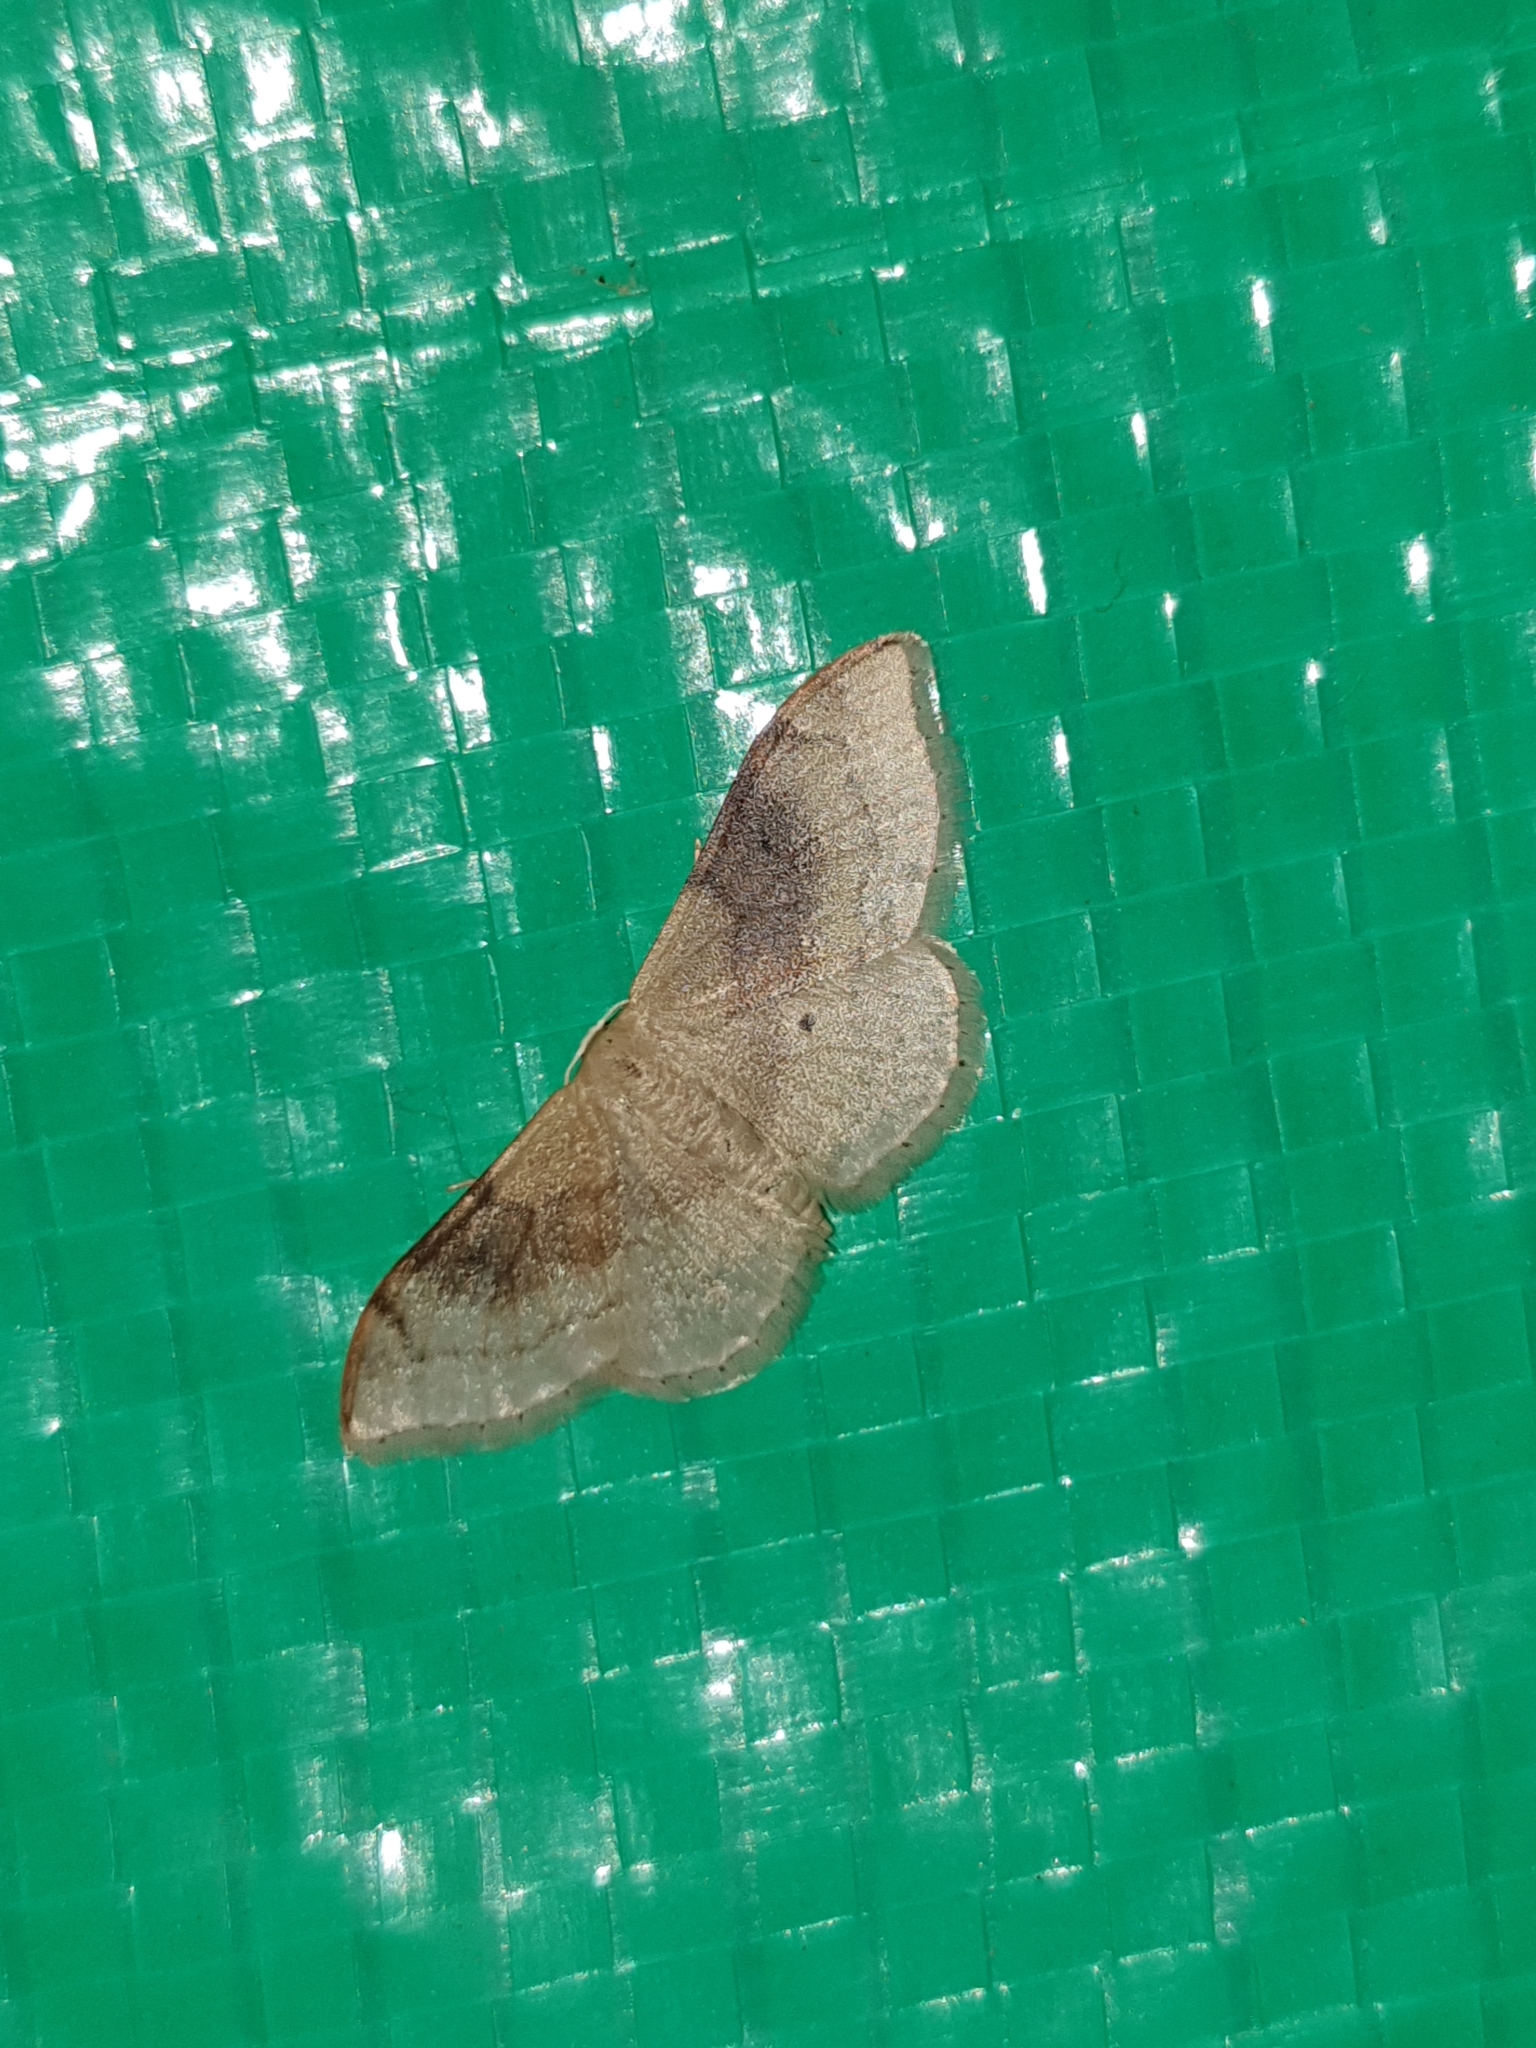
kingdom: Animalia
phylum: Arthropoda
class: Insecta
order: Lepidoptera
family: Geometridae
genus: Idaea
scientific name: Idaea degeneraria
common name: Portland ribbon wave
